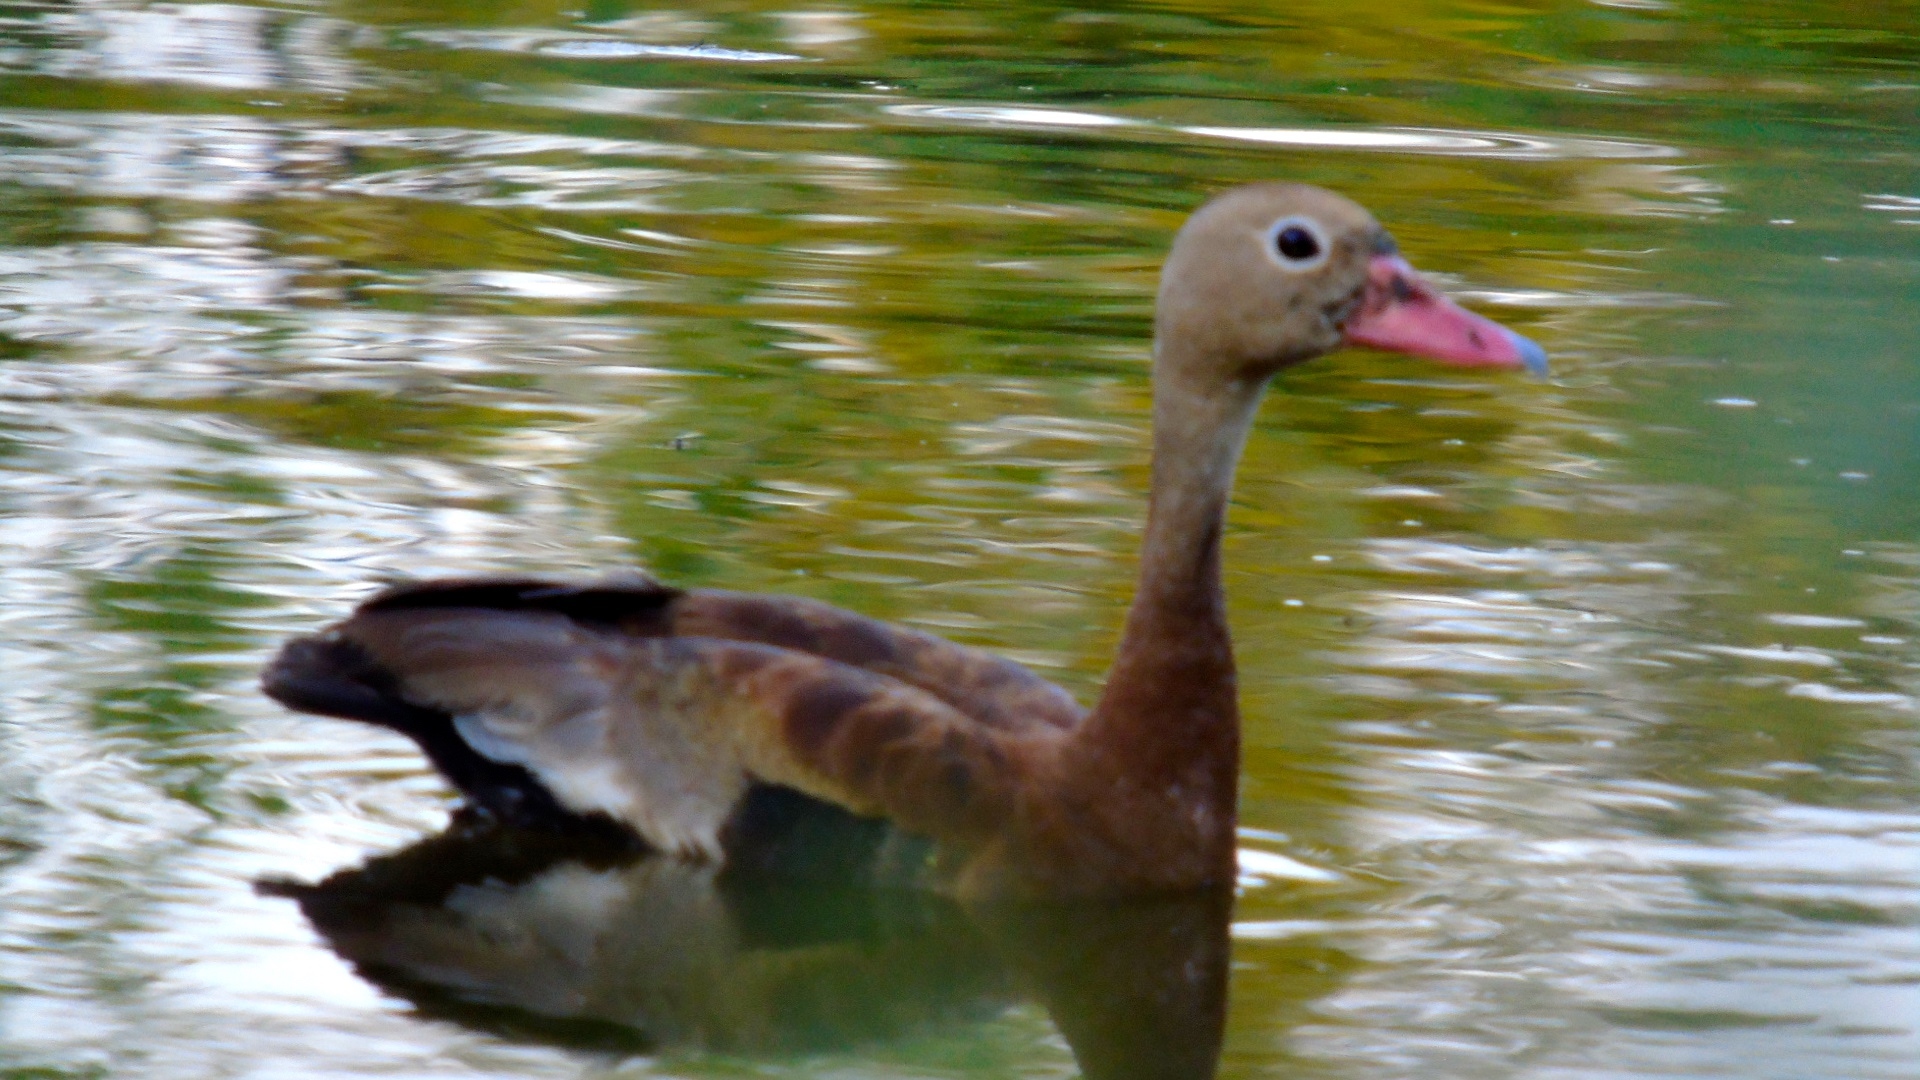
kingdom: Animalia
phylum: Chordata
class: Aves
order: Anseriformes
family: Anatidae
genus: Dendrocygna
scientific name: Dendrocygna autumnalis
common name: Black-bellied whistling duck
